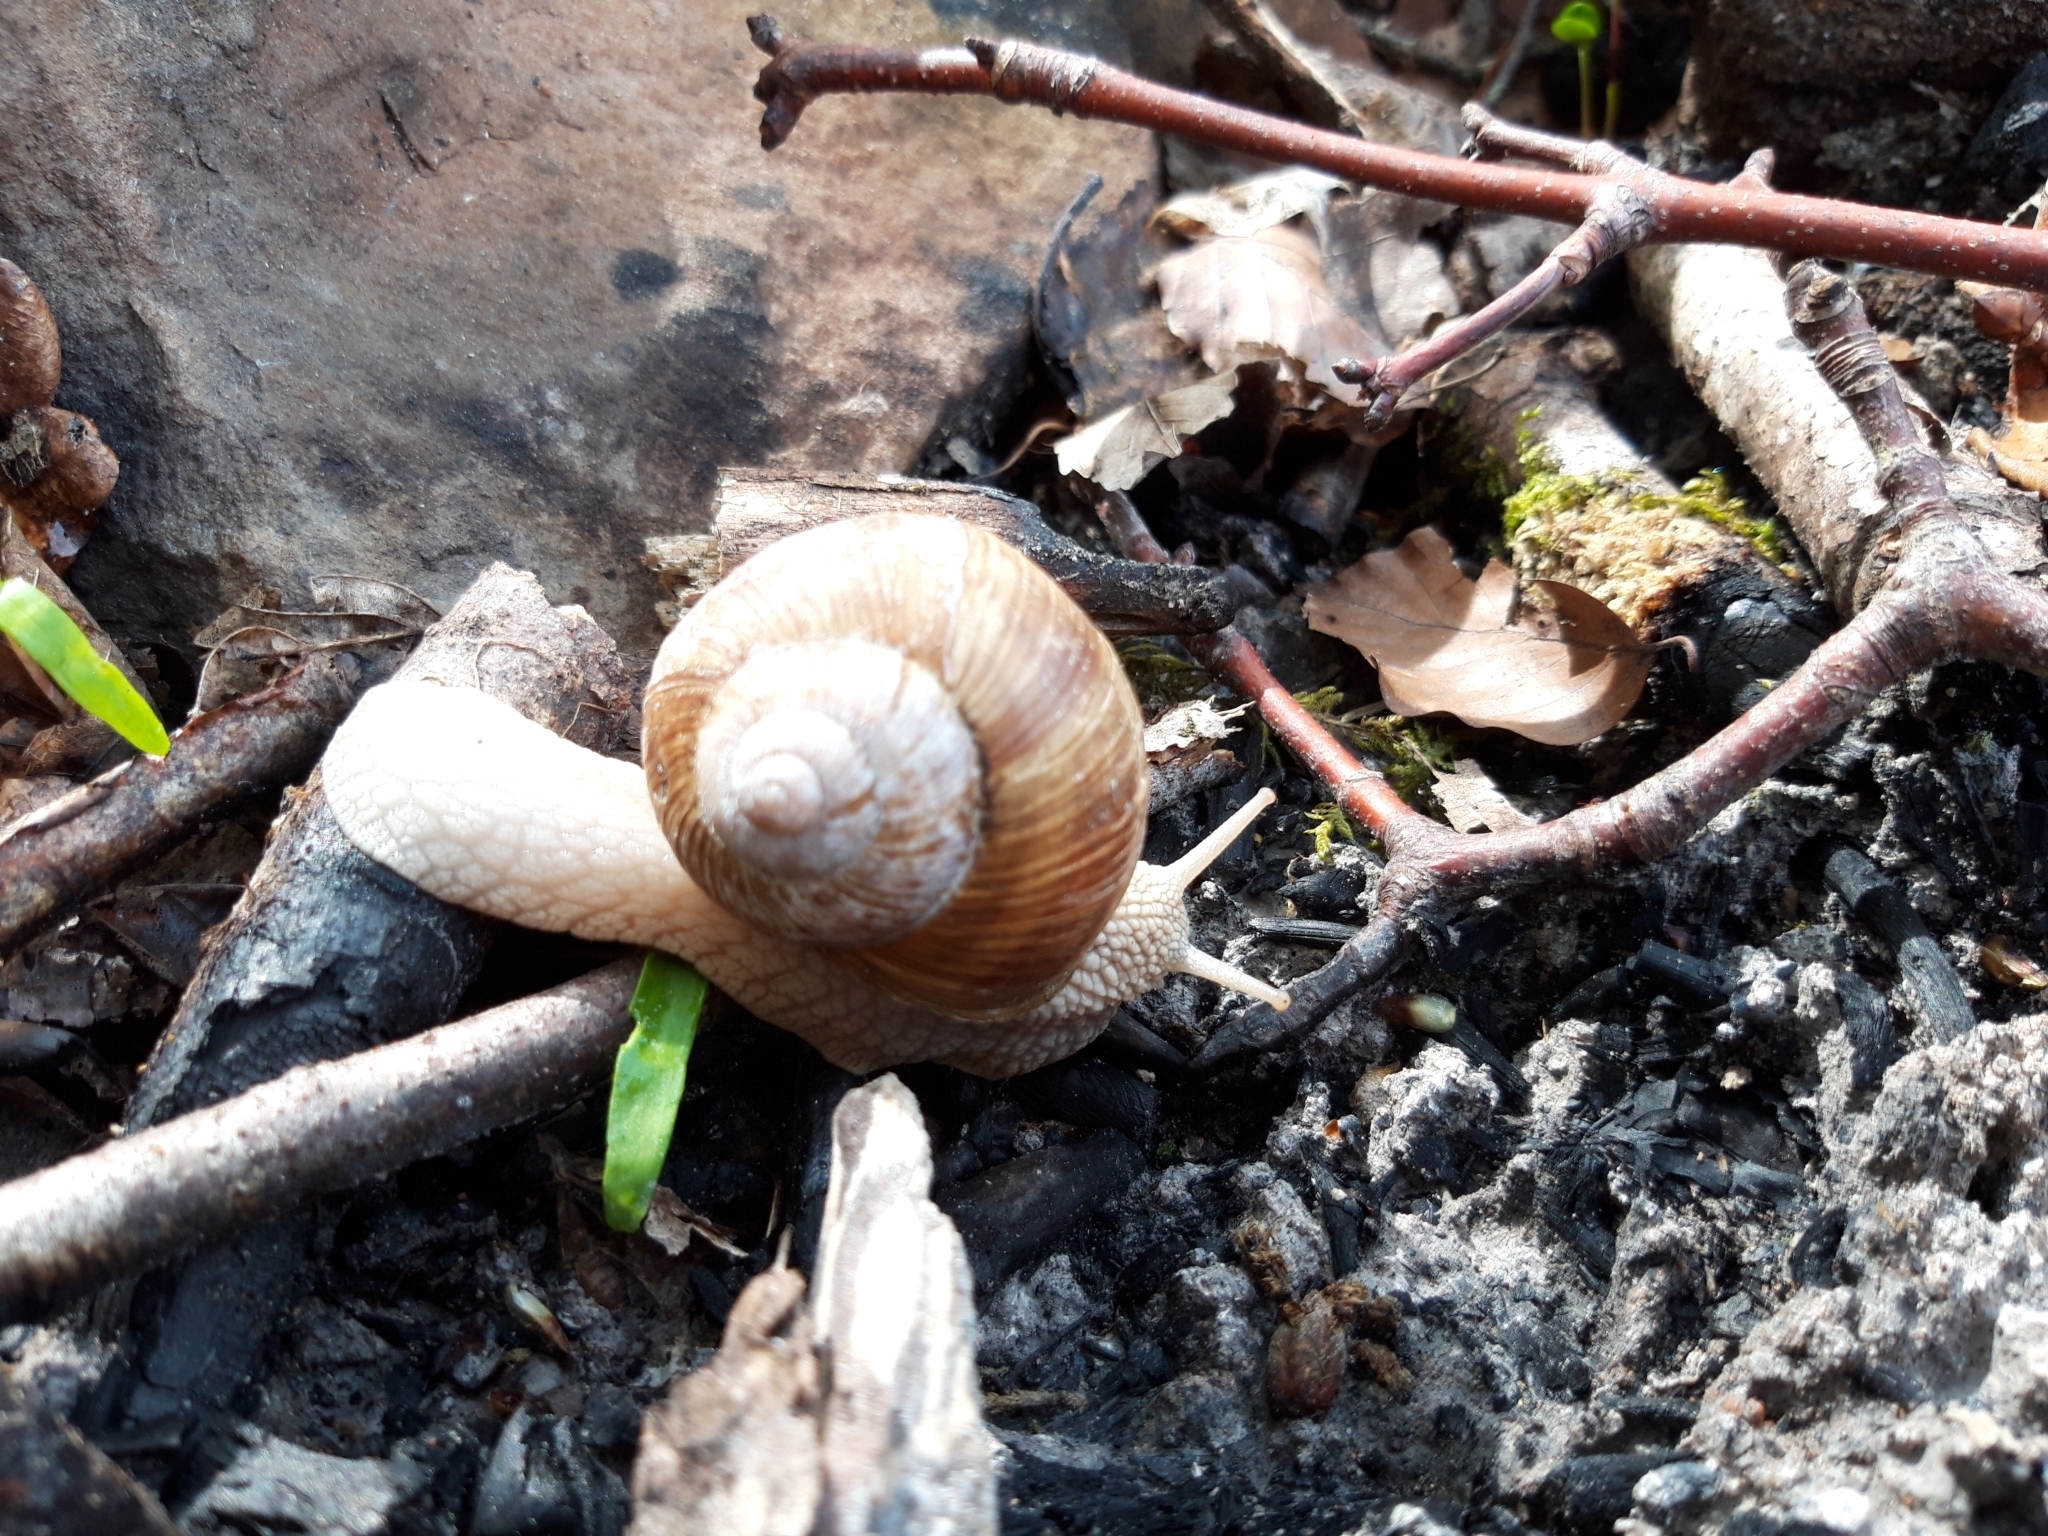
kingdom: Animalia
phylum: Mollusca
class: Gastropoda
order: Stylommatophora
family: Helicidae
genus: Helix
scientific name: Helix pomatia
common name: Roman snail
